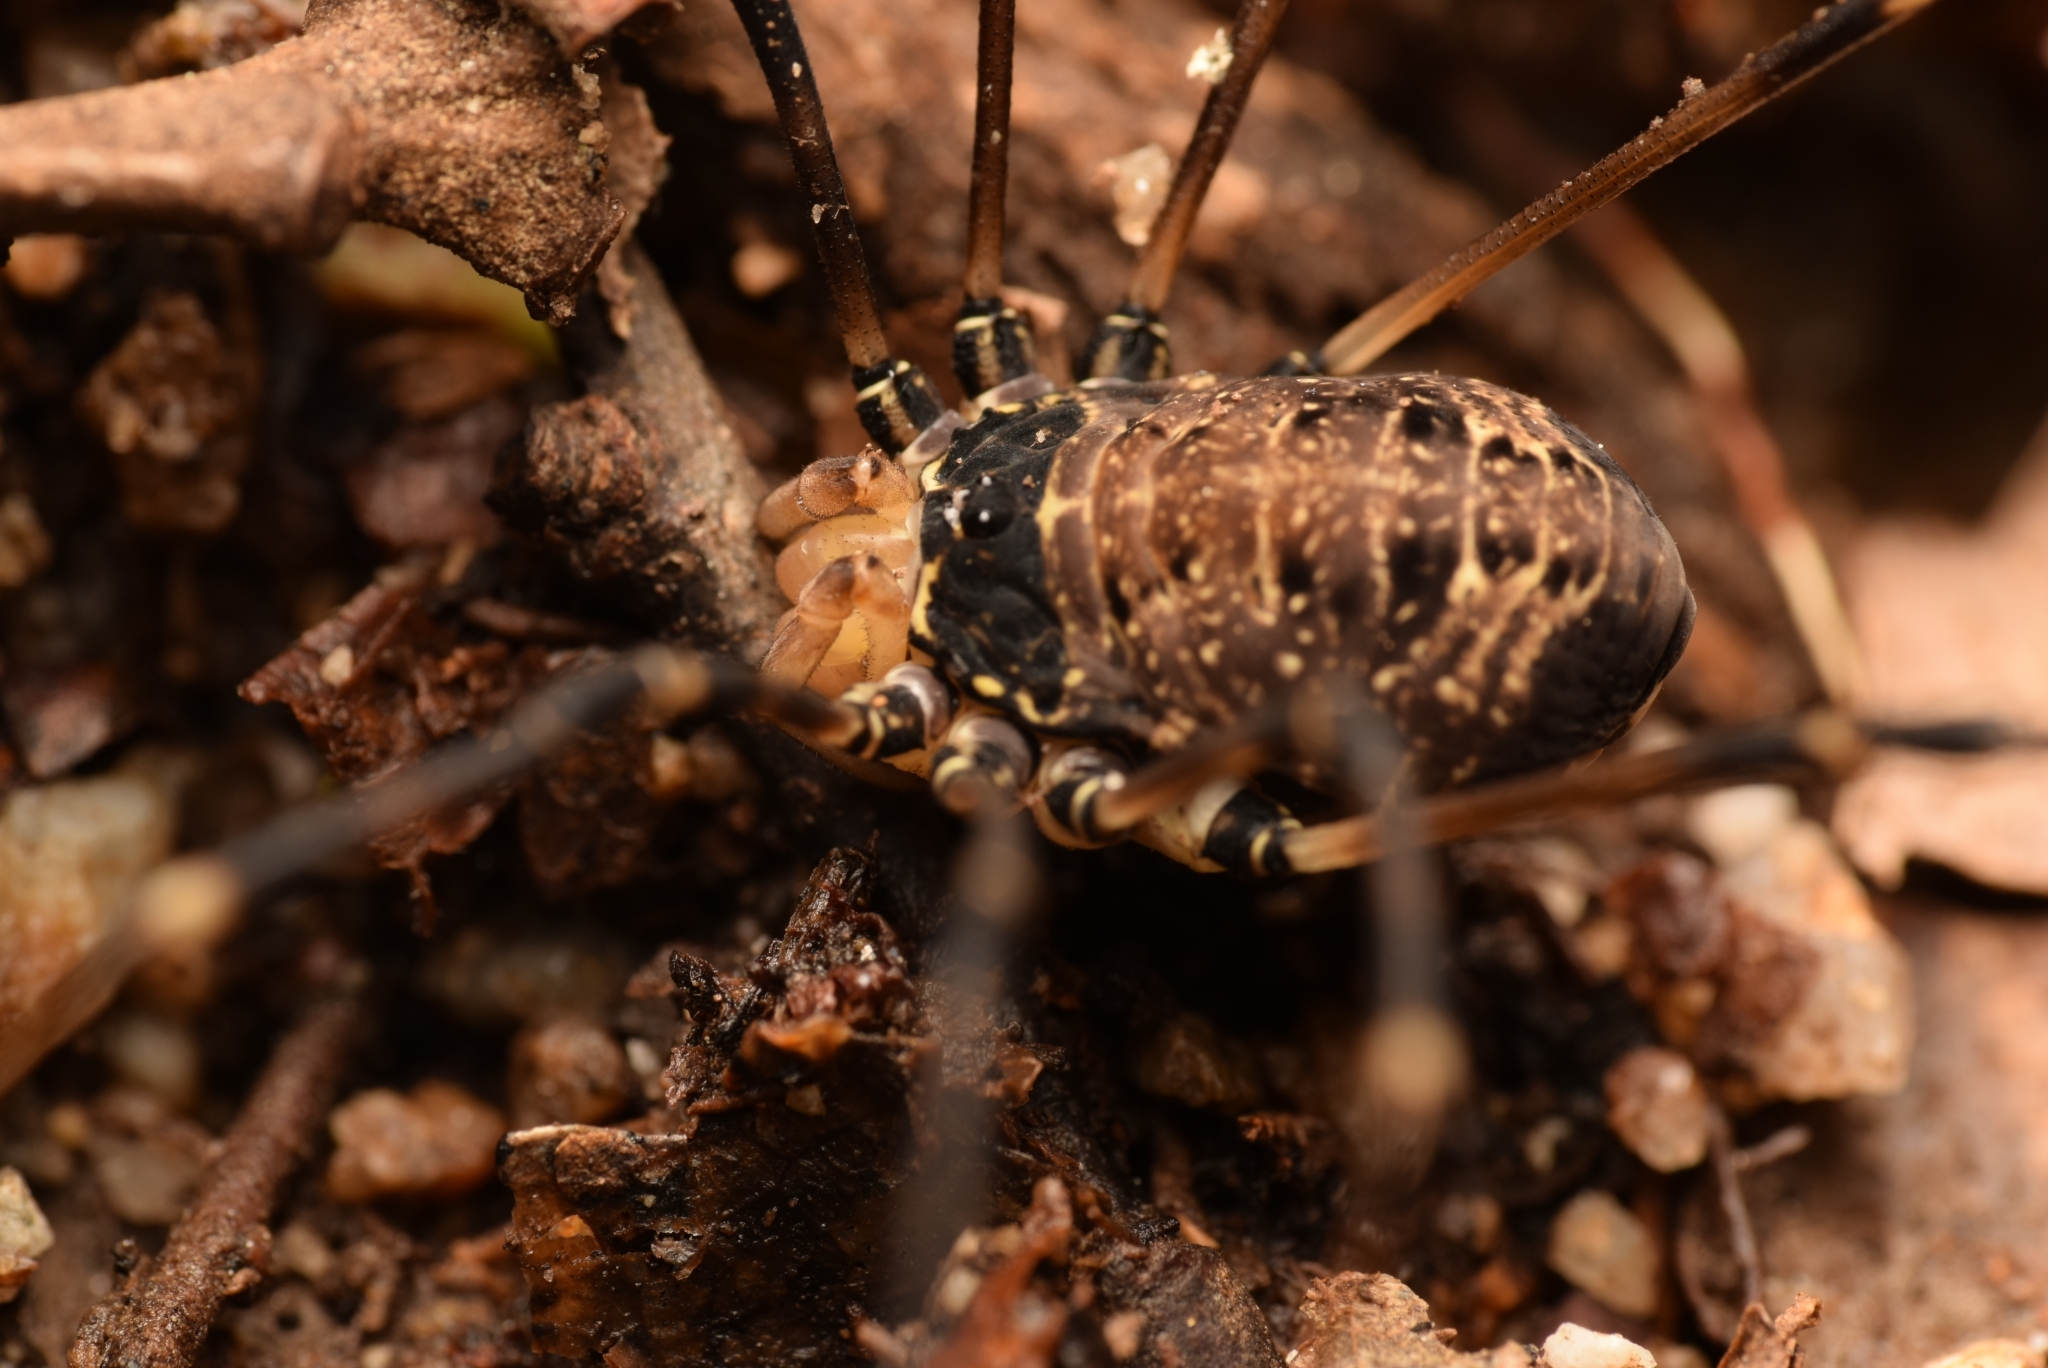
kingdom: Animalia
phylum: Arthropoda
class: Arachnida
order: Opiliones
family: Sclerosomatidae
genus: Gyas
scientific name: Gyas titanus
